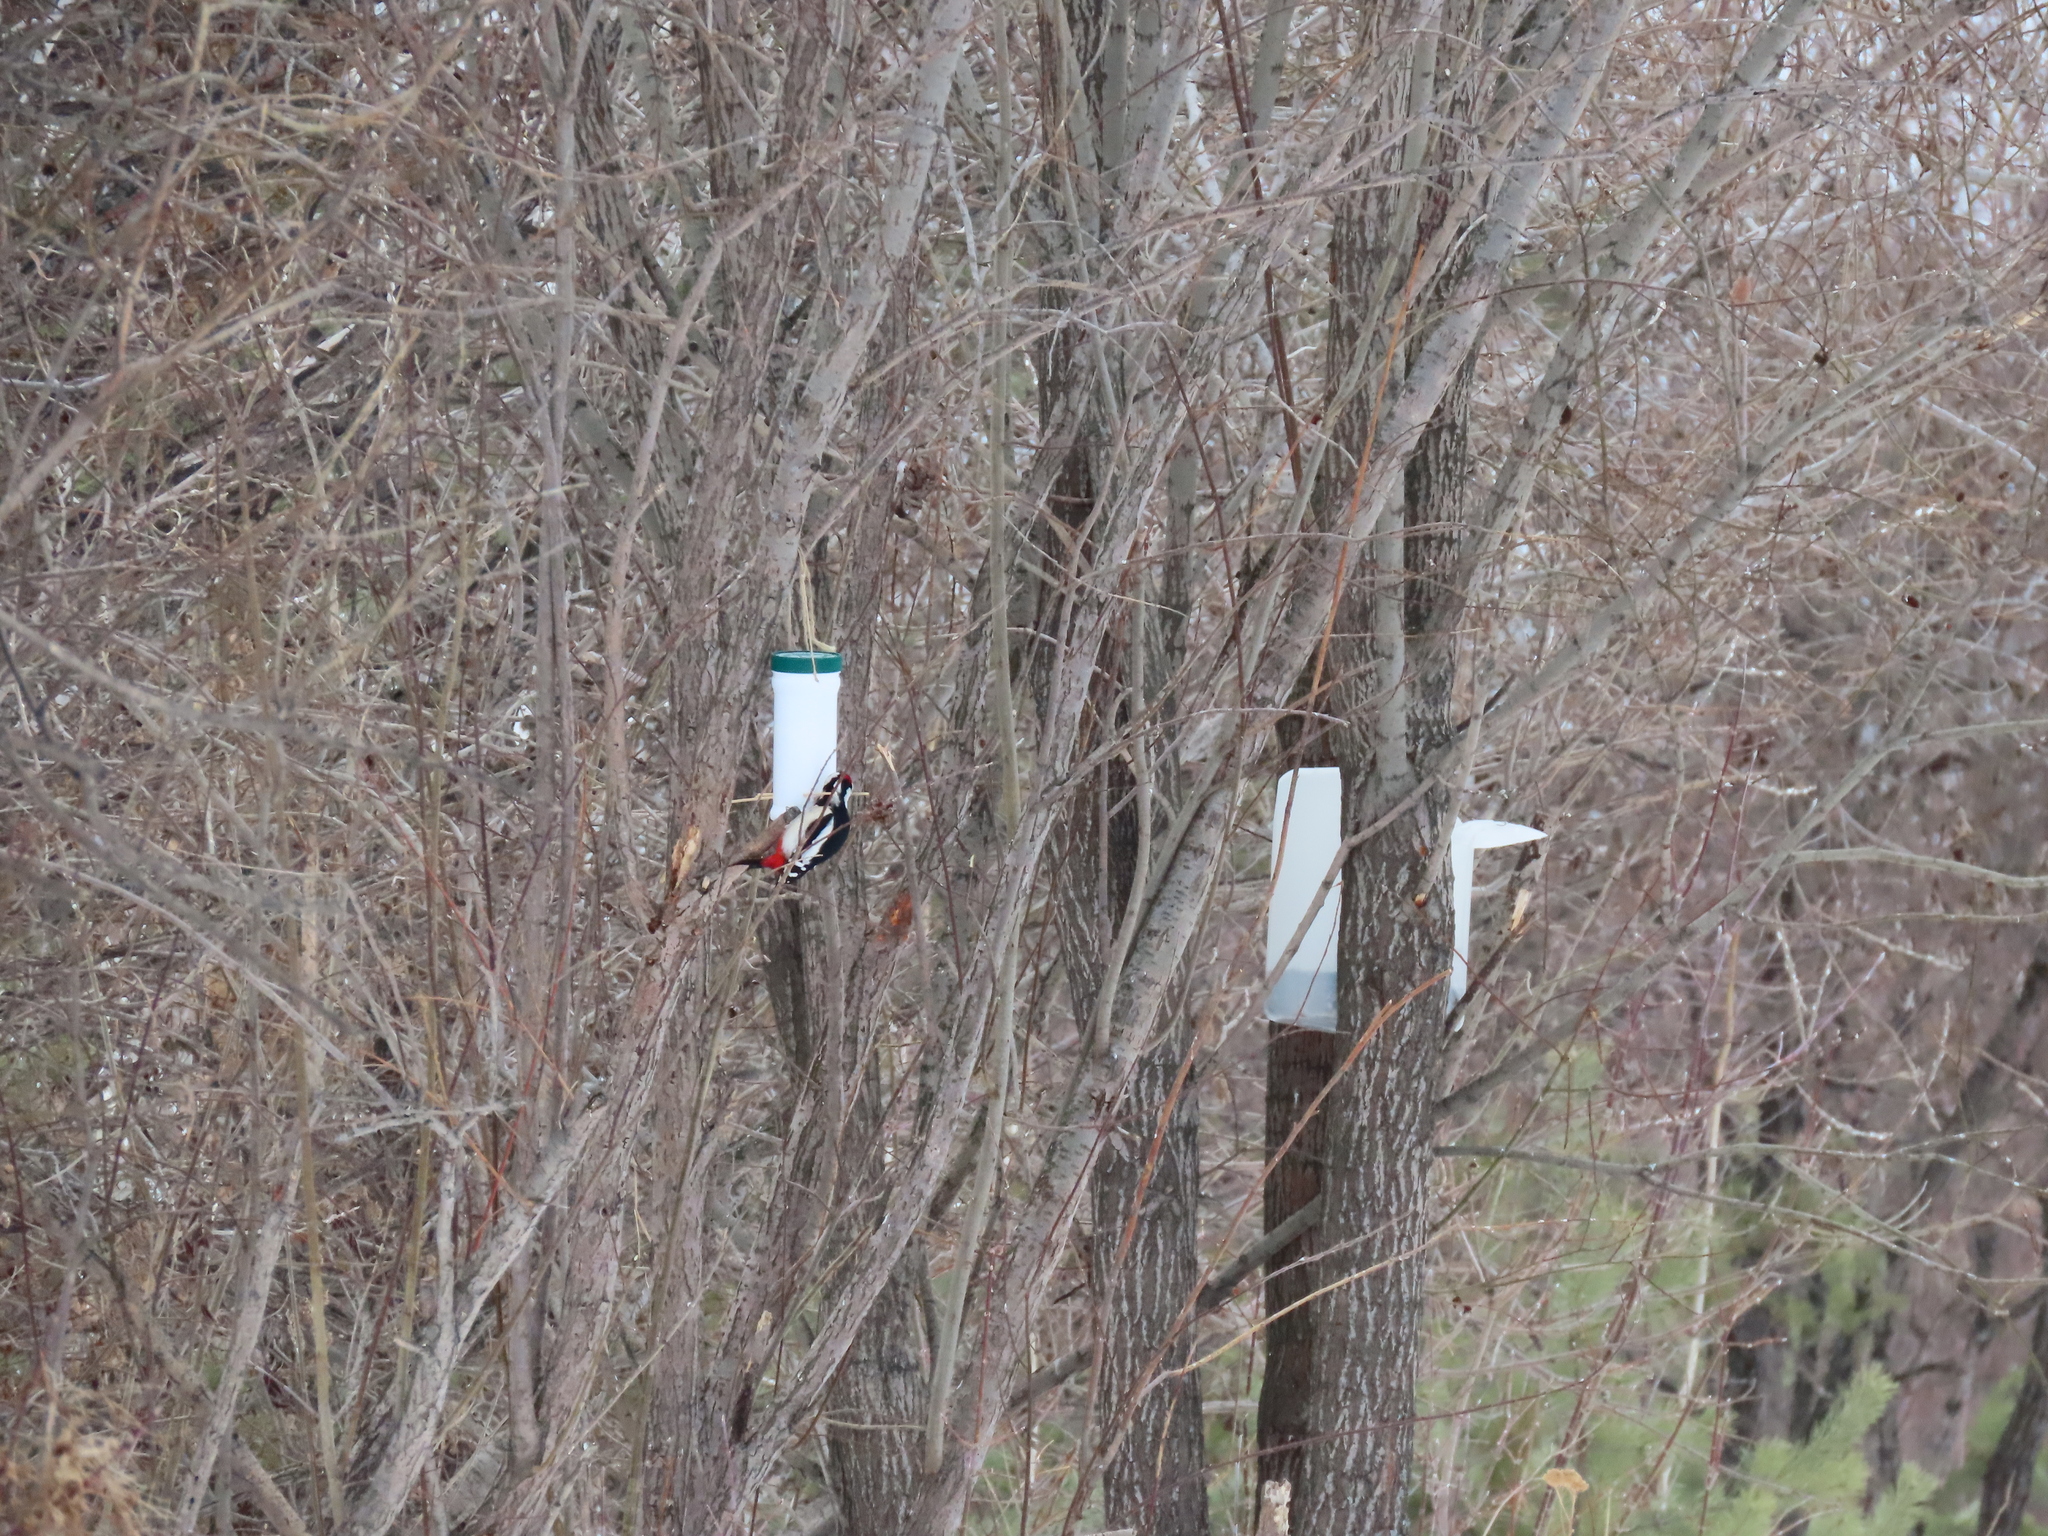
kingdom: Animalia
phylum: Chordata
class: Aves
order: Piciformes
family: Picidae
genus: Dendrocopos
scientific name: Dendrocopos major
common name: Great spotted woodpecker
